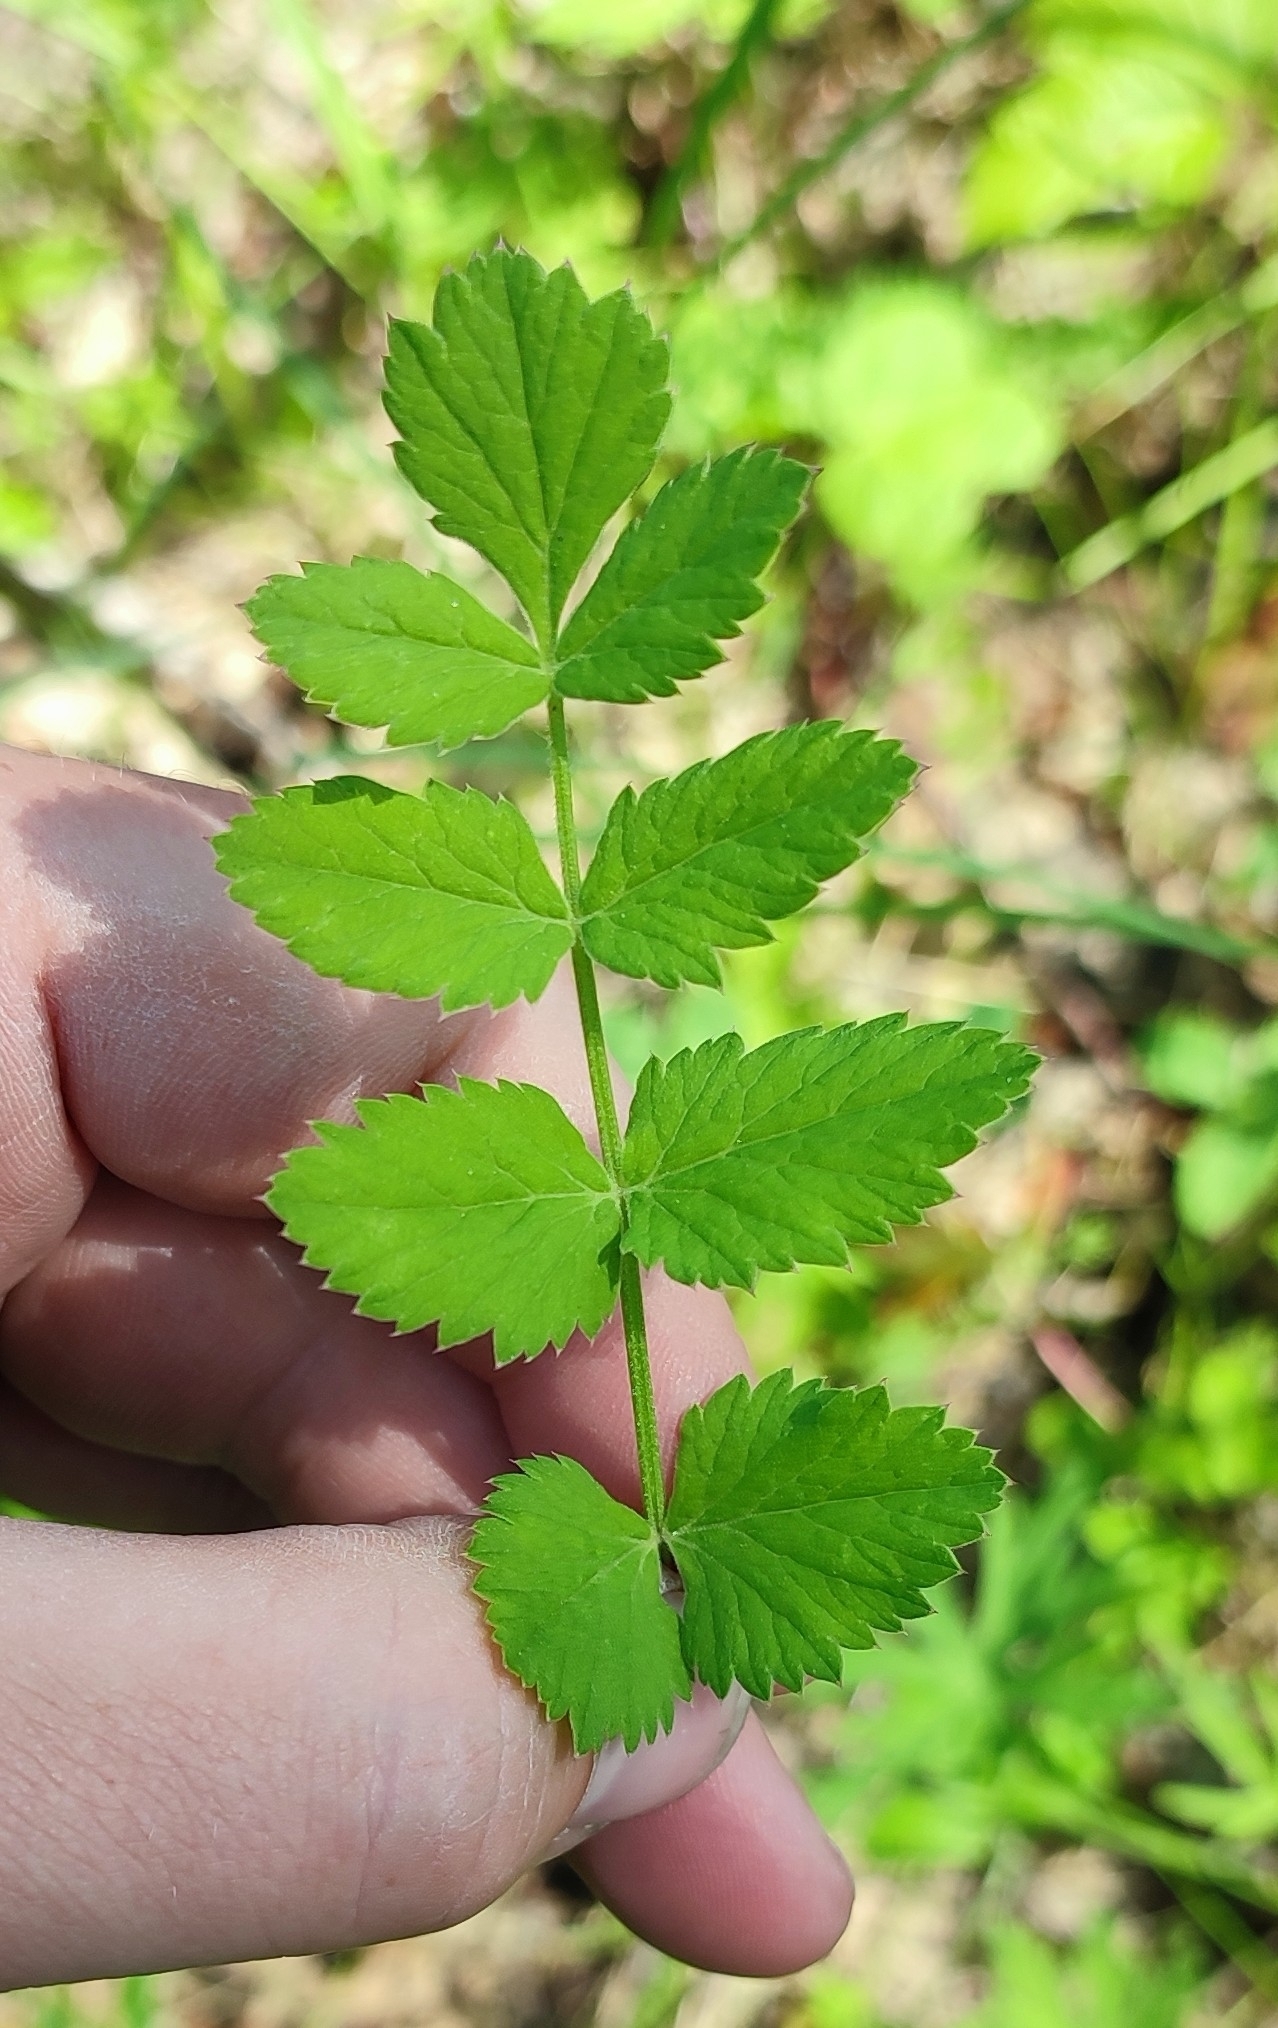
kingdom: Plantae
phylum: Tracheophyta
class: Magnoliopsida
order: Apiales
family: Apiaceae
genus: Pimpinella
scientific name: Pimpinella saxifraga
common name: Burnet-saxifrage
